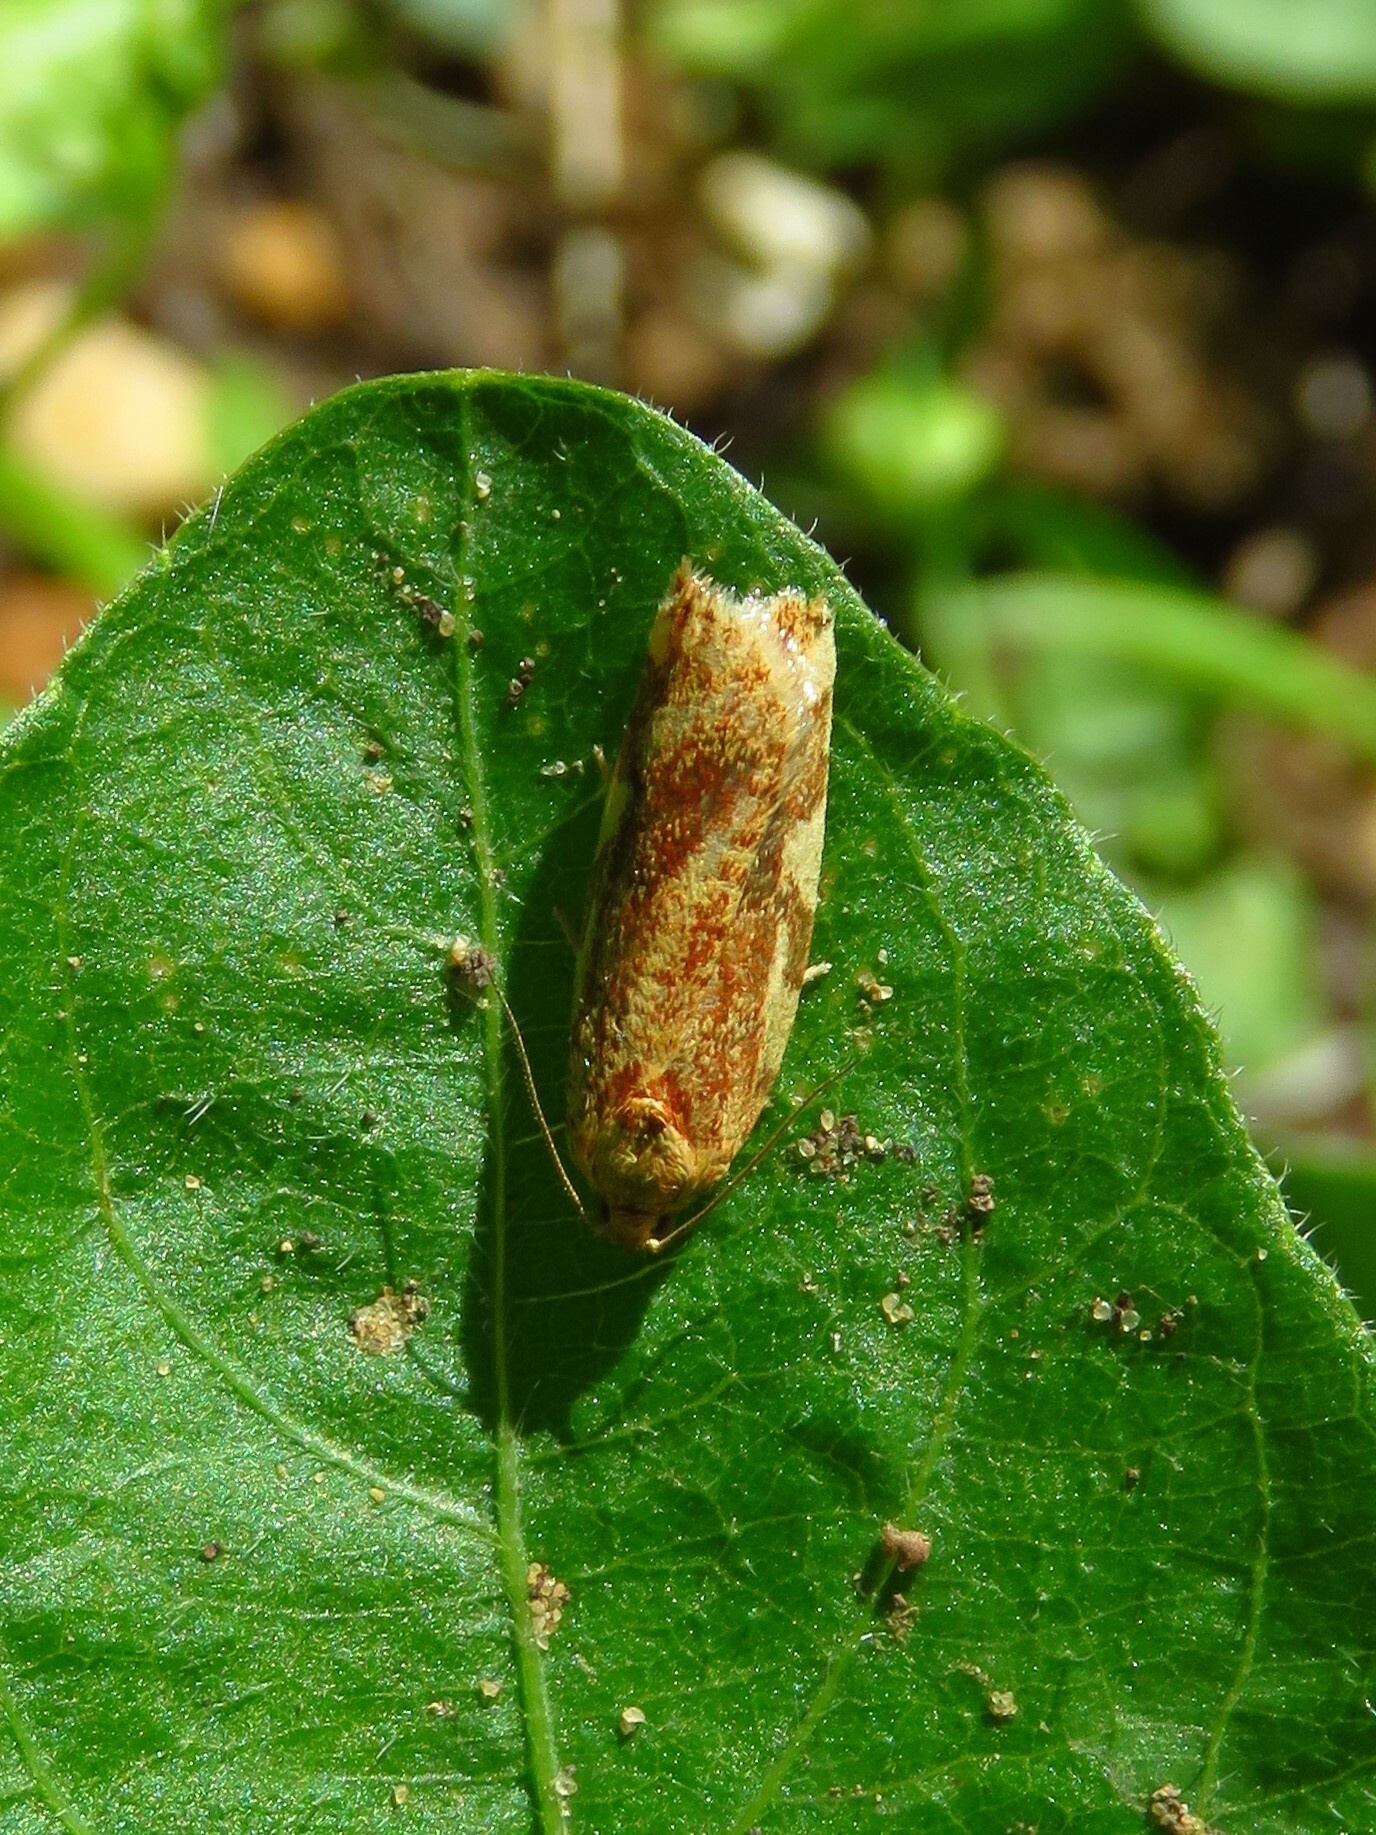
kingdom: Animalia
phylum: Arthropoda
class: Insecta
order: Lepidoptera
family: Tortricidae
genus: Archips
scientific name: Archips argyrospila
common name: Fruit-tree leafroller moth
